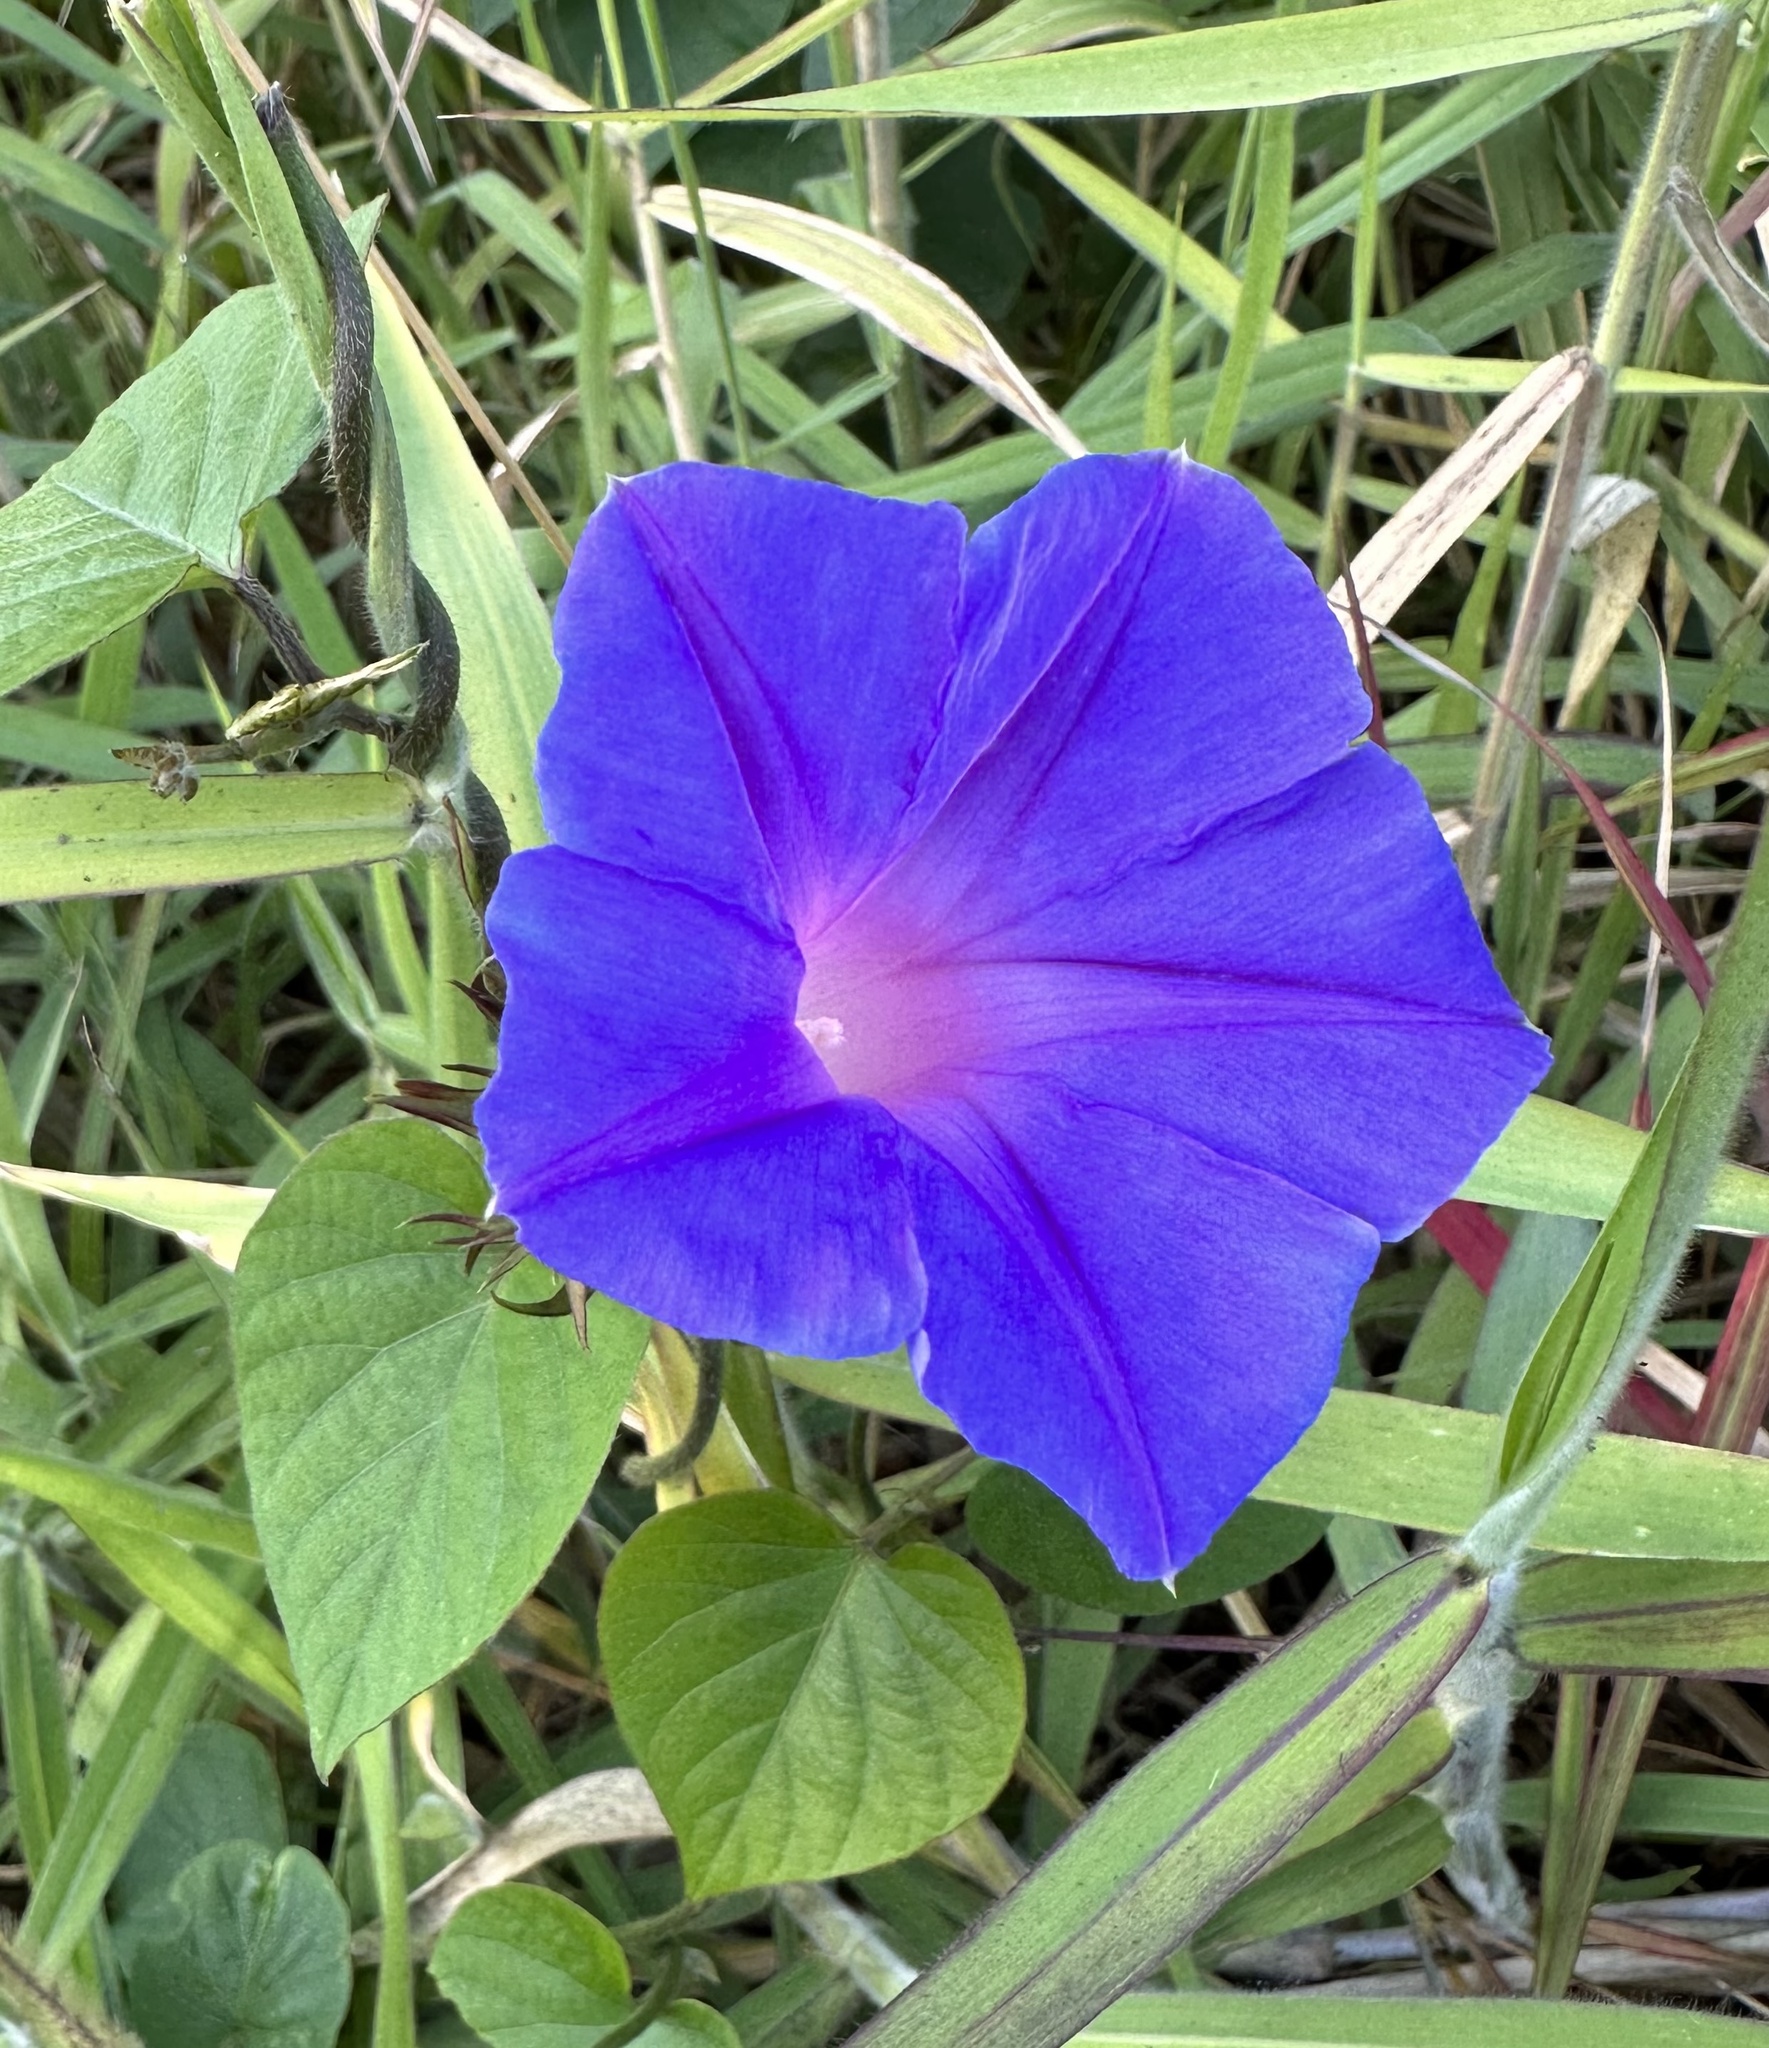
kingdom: Plantae
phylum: Tracheophyta
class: Magnoliopsida
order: Solanales
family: Convolvulaceae
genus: Ipomoea
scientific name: Ipomoea indica
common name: Blue dawnflower
